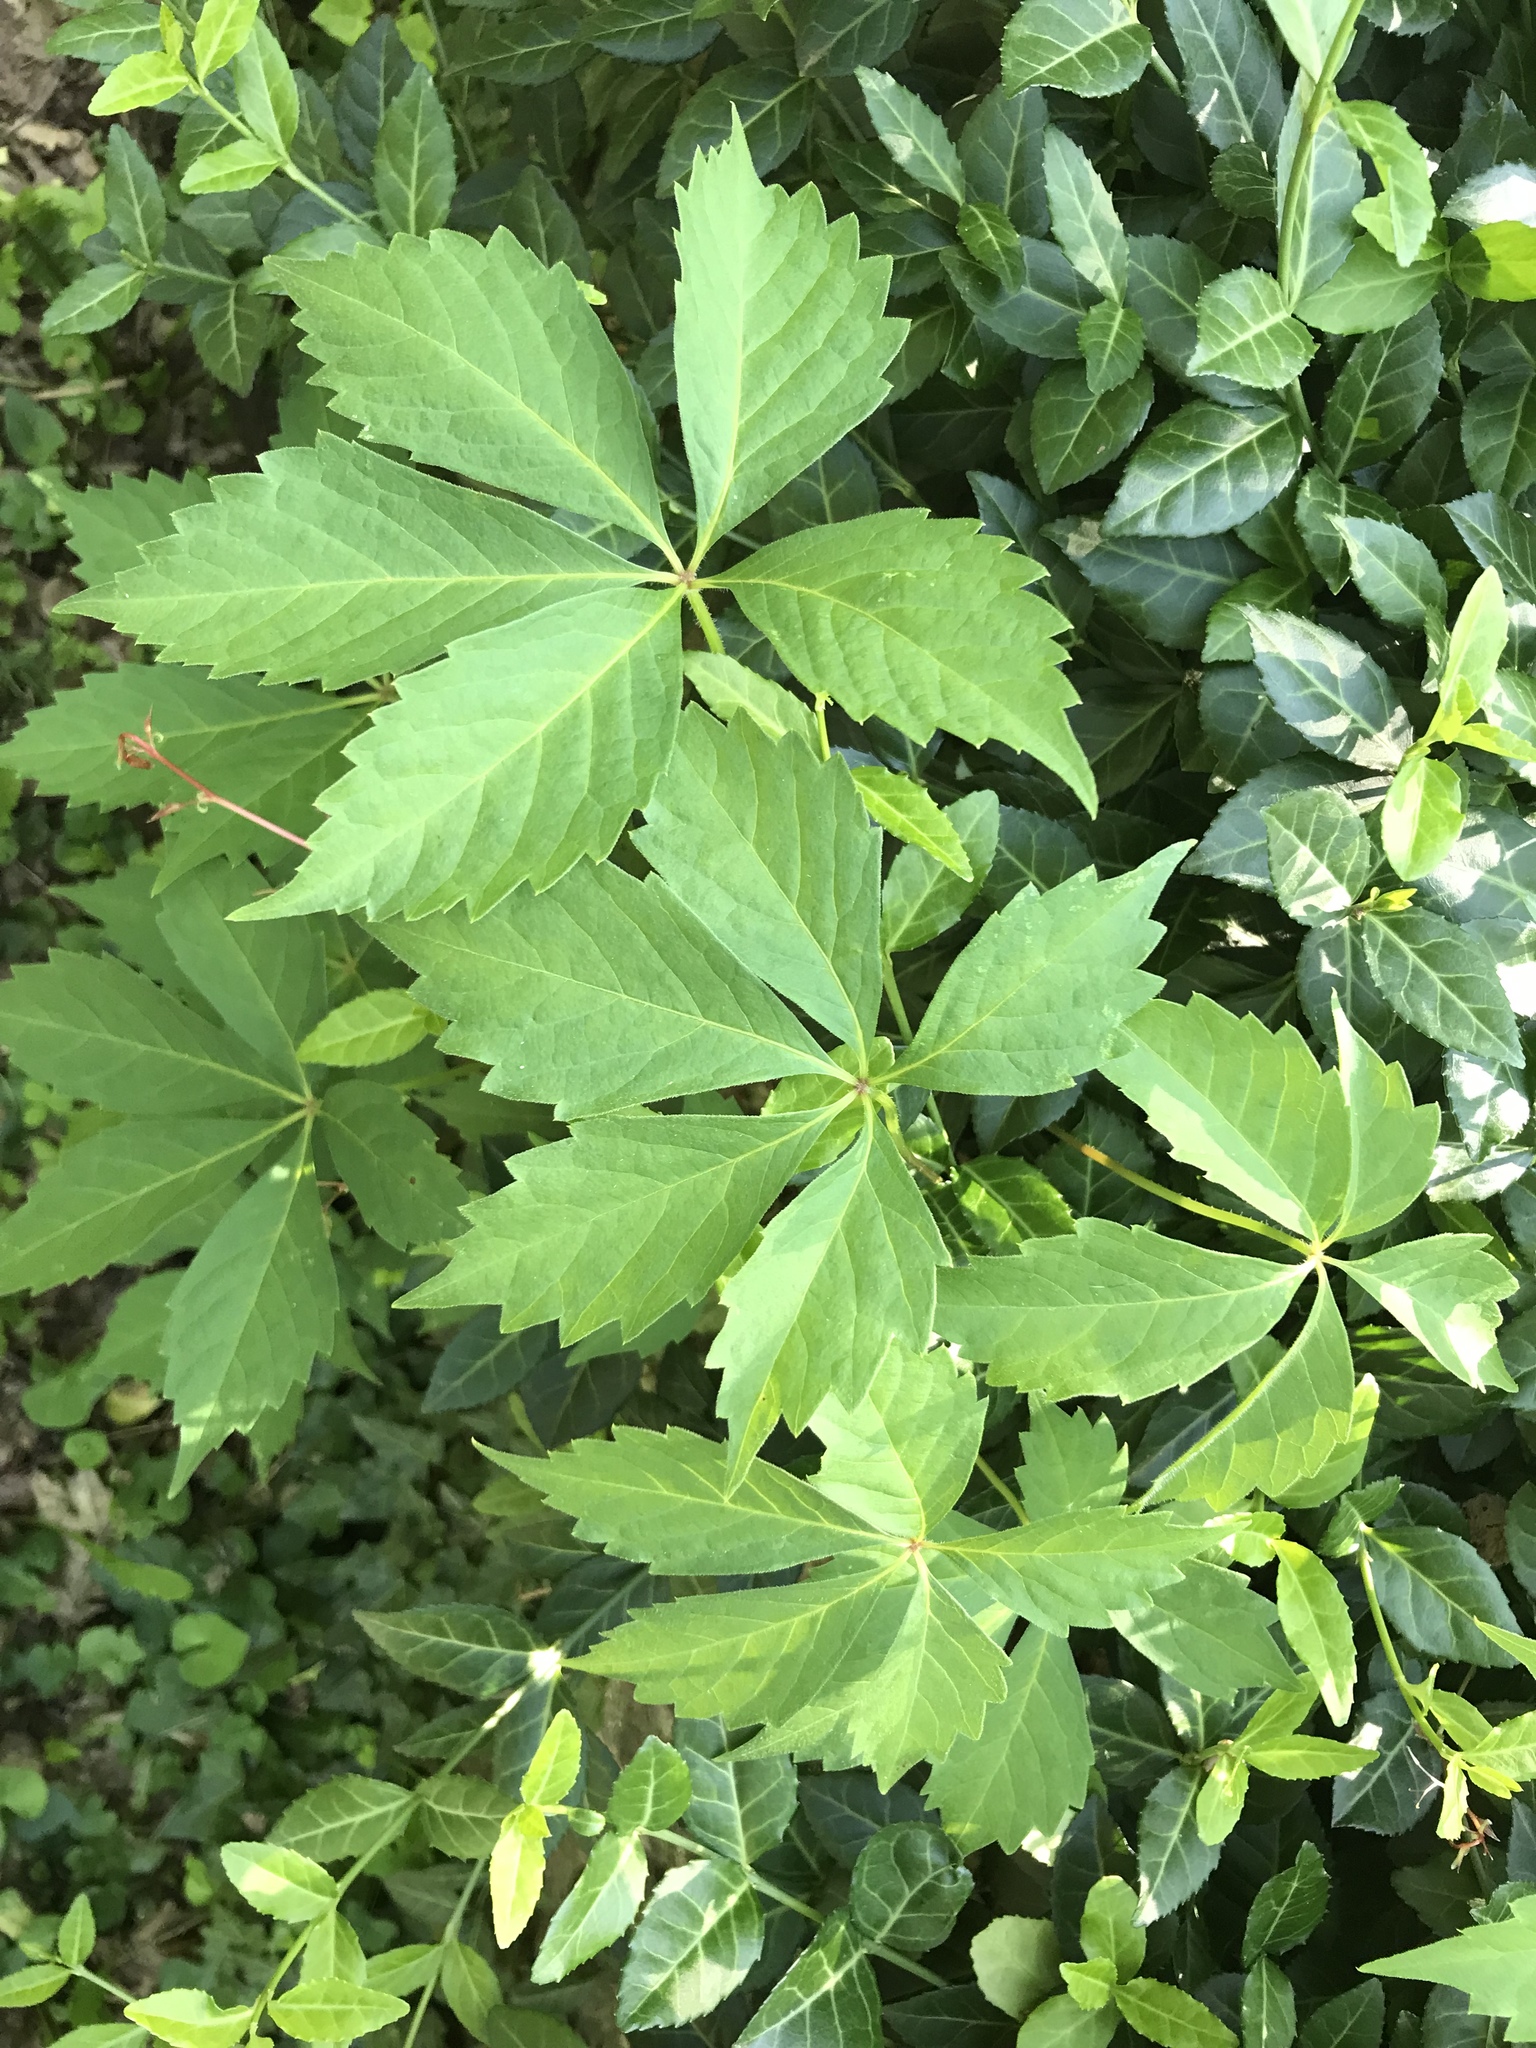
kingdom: Plantae
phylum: Tracheophyta
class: Magnoliopsida
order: Vitales
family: Vitaceae
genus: Parthenocissus
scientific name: Parthenocissus quinquefolia
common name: Virginia-creeper
